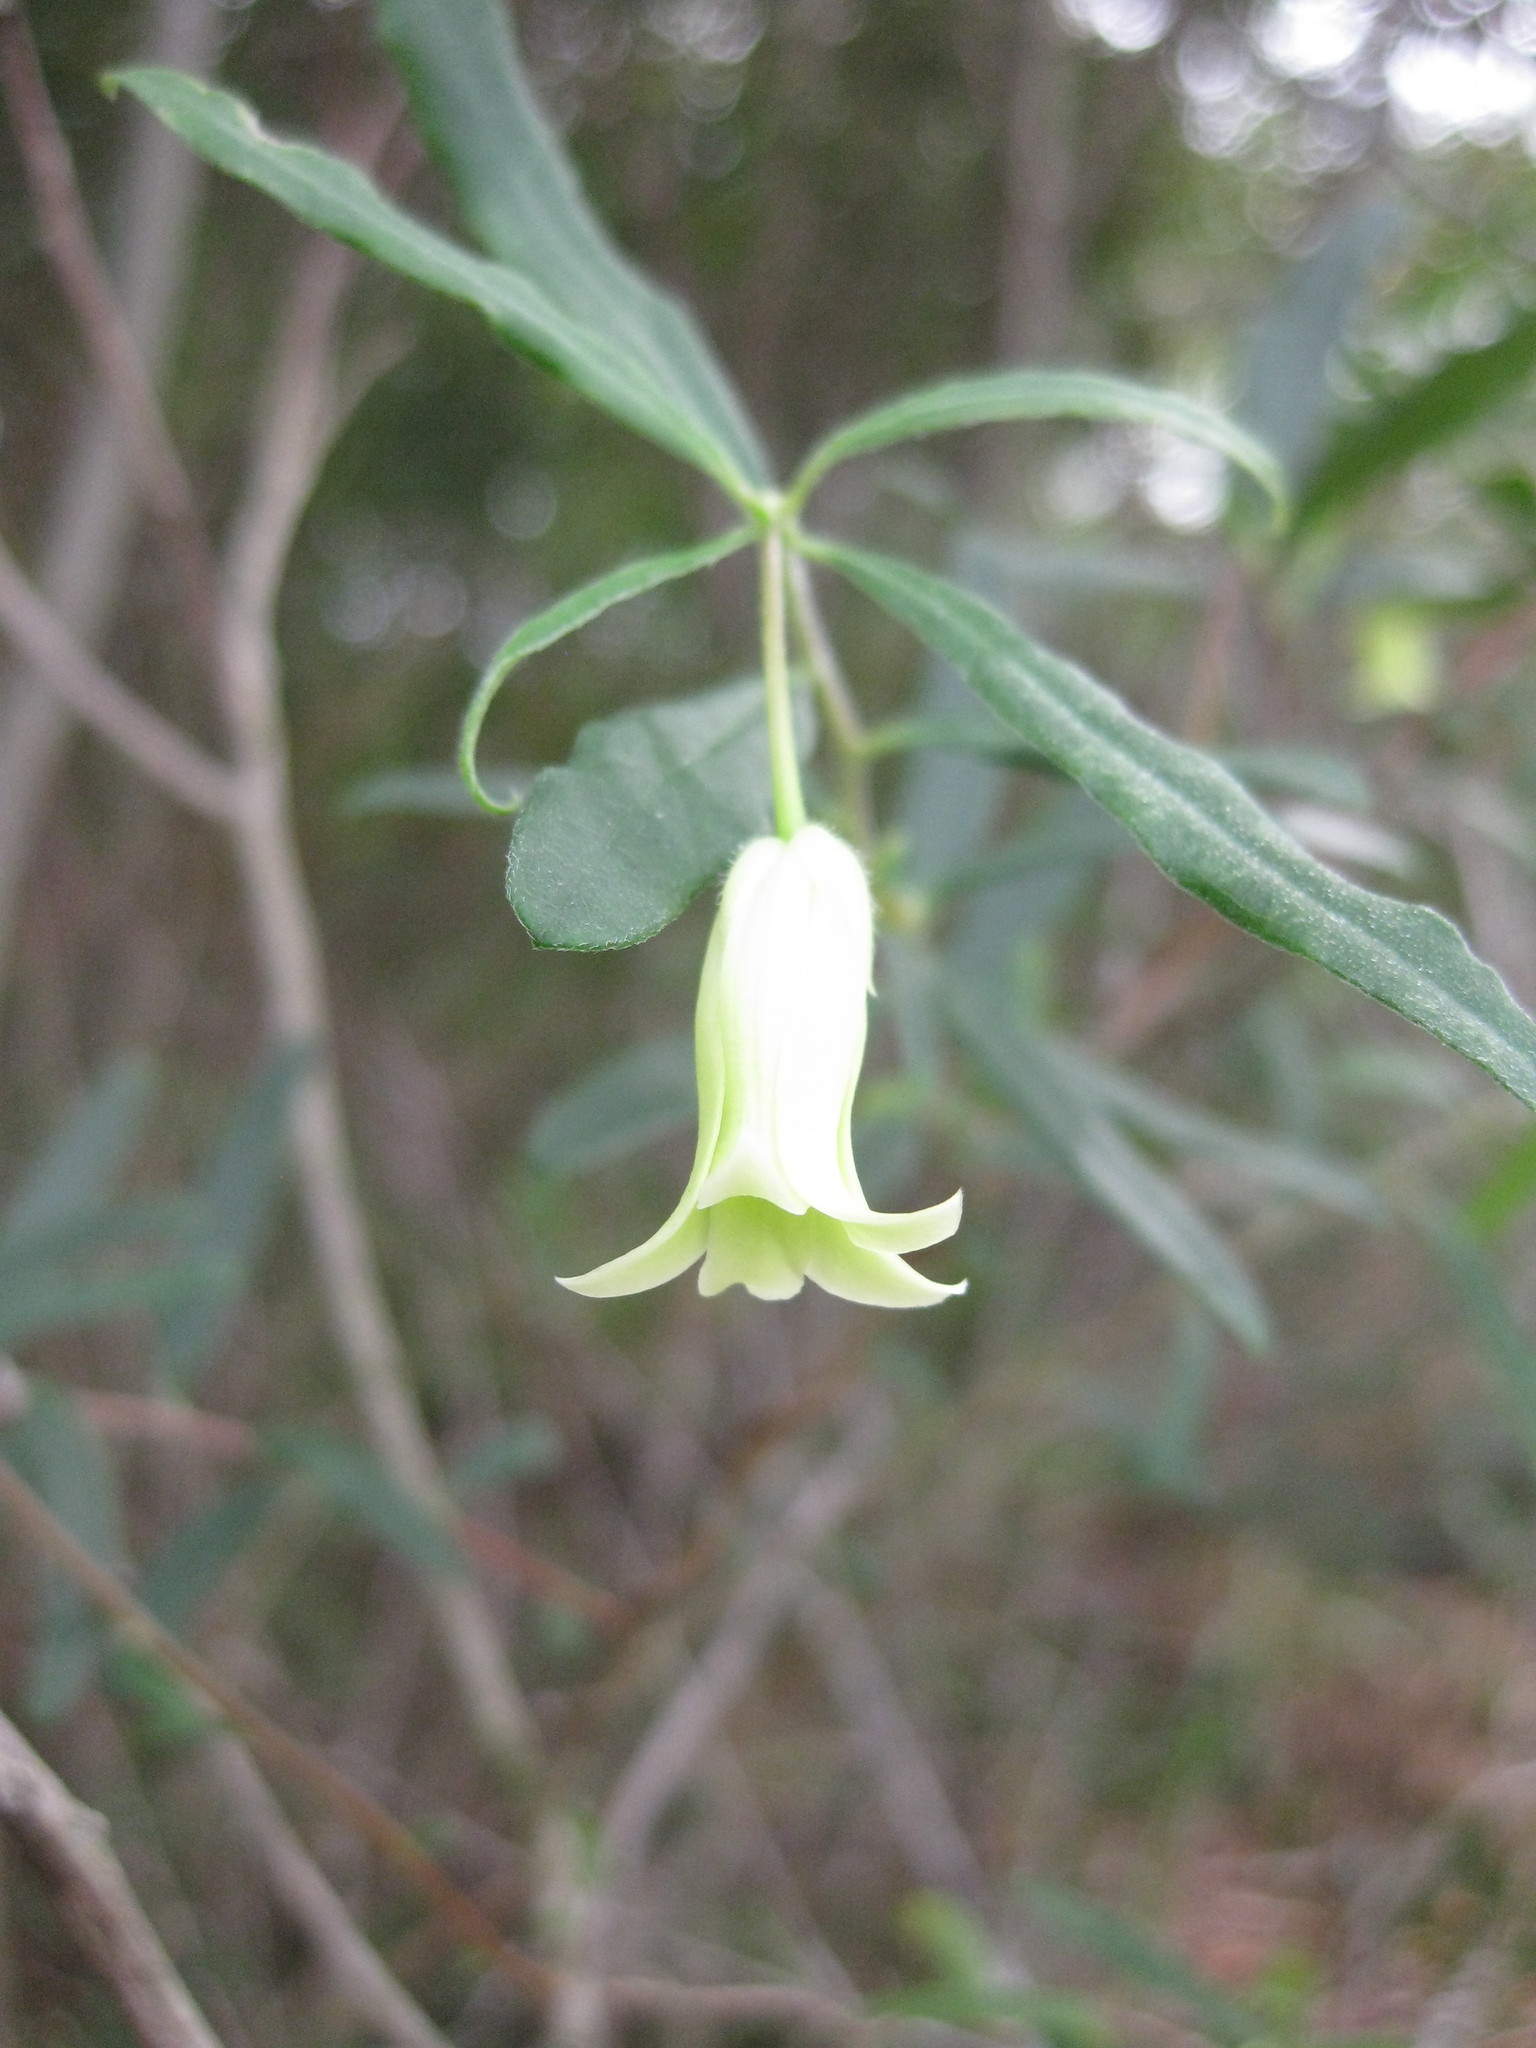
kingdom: Plantae
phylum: Tracheophyta
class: Magnoliopsida
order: Apiales
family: Pittosporaceae
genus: Billardiera
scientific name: Billardiera scandens
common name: Apple-berry
